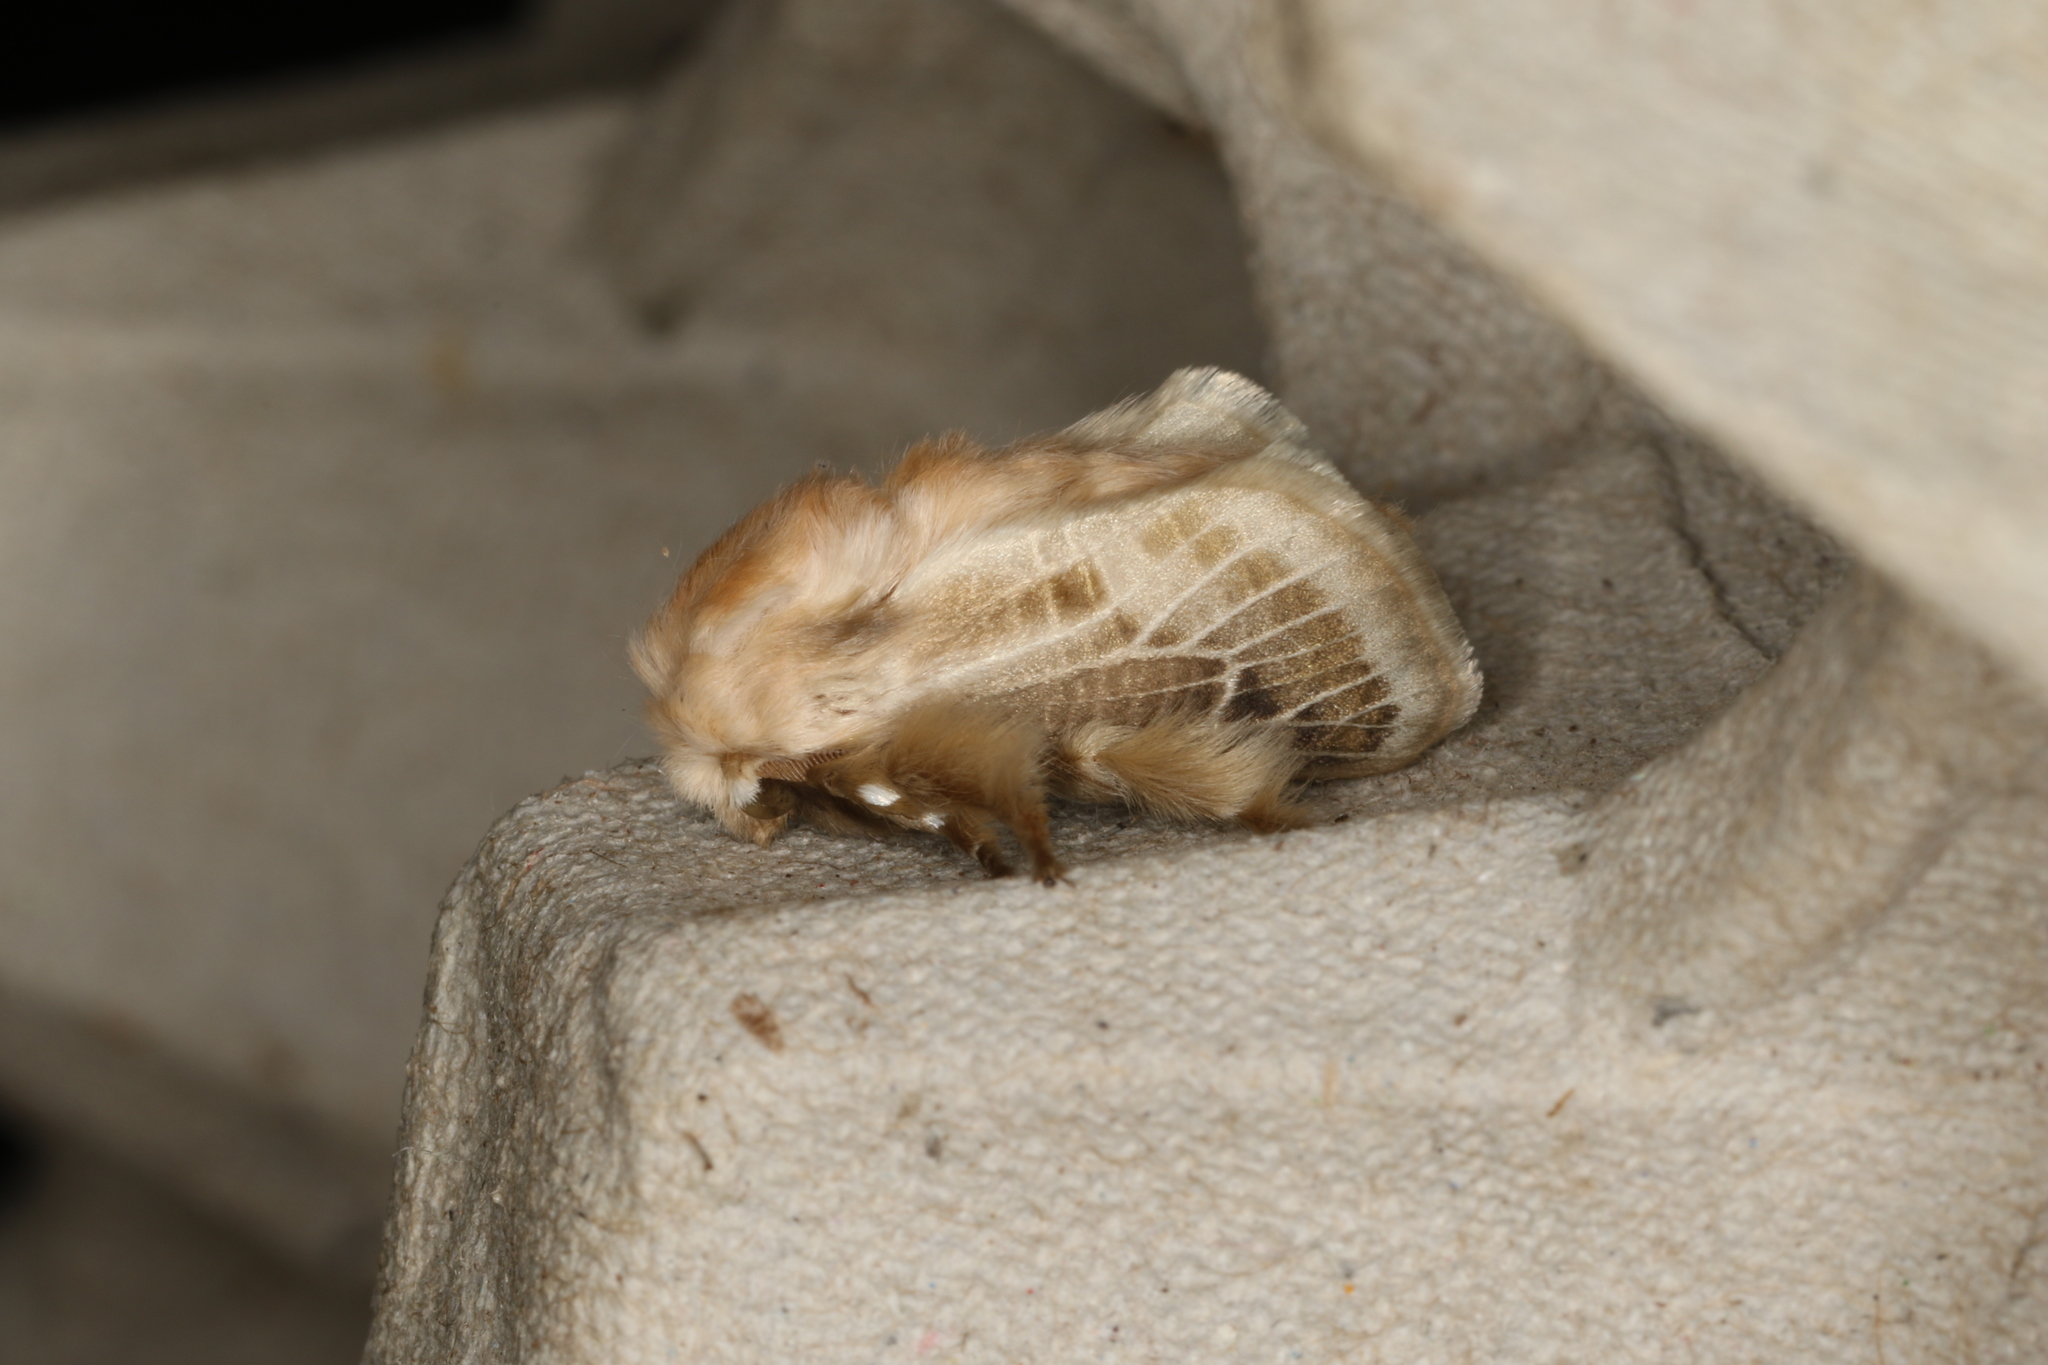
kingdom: Animalia
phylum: Arthropoda
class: Insecta
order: Lepidoptera
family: Limacodidae
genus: Doratifera
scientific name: Doratifera pinguis
